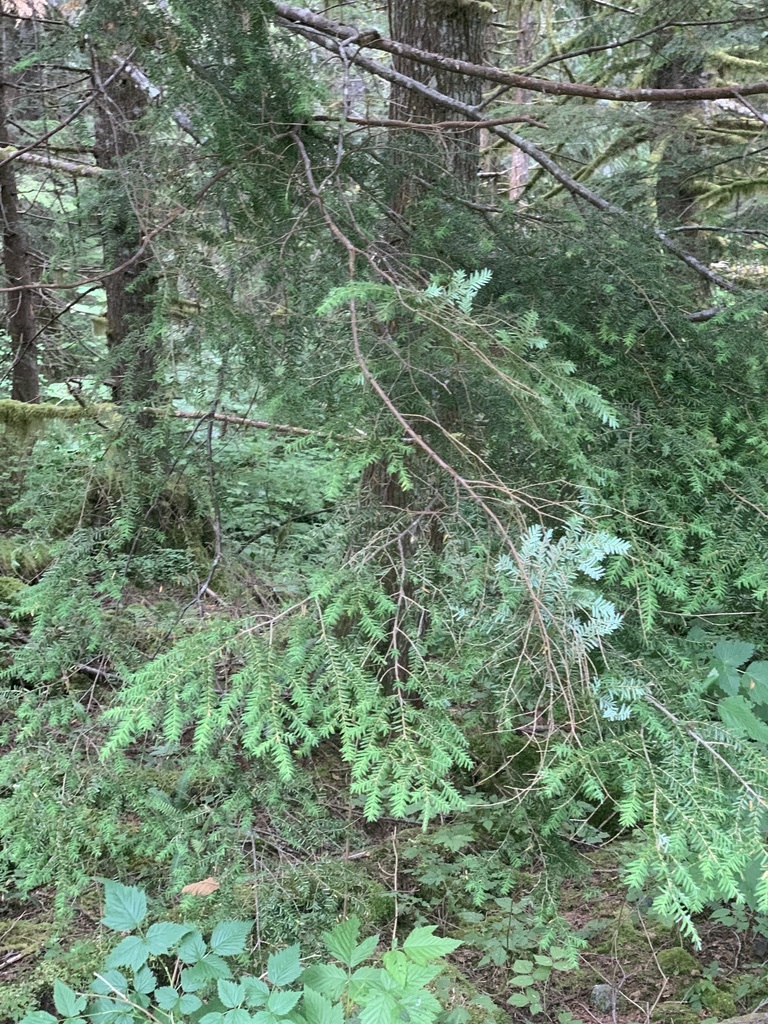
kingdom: Plantae
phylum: Tracheophyta
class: Pinopsida
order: Pinales
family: Pinaceae
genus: Tsuga
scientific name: Tsuga heterophylla
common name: Western hemlock
